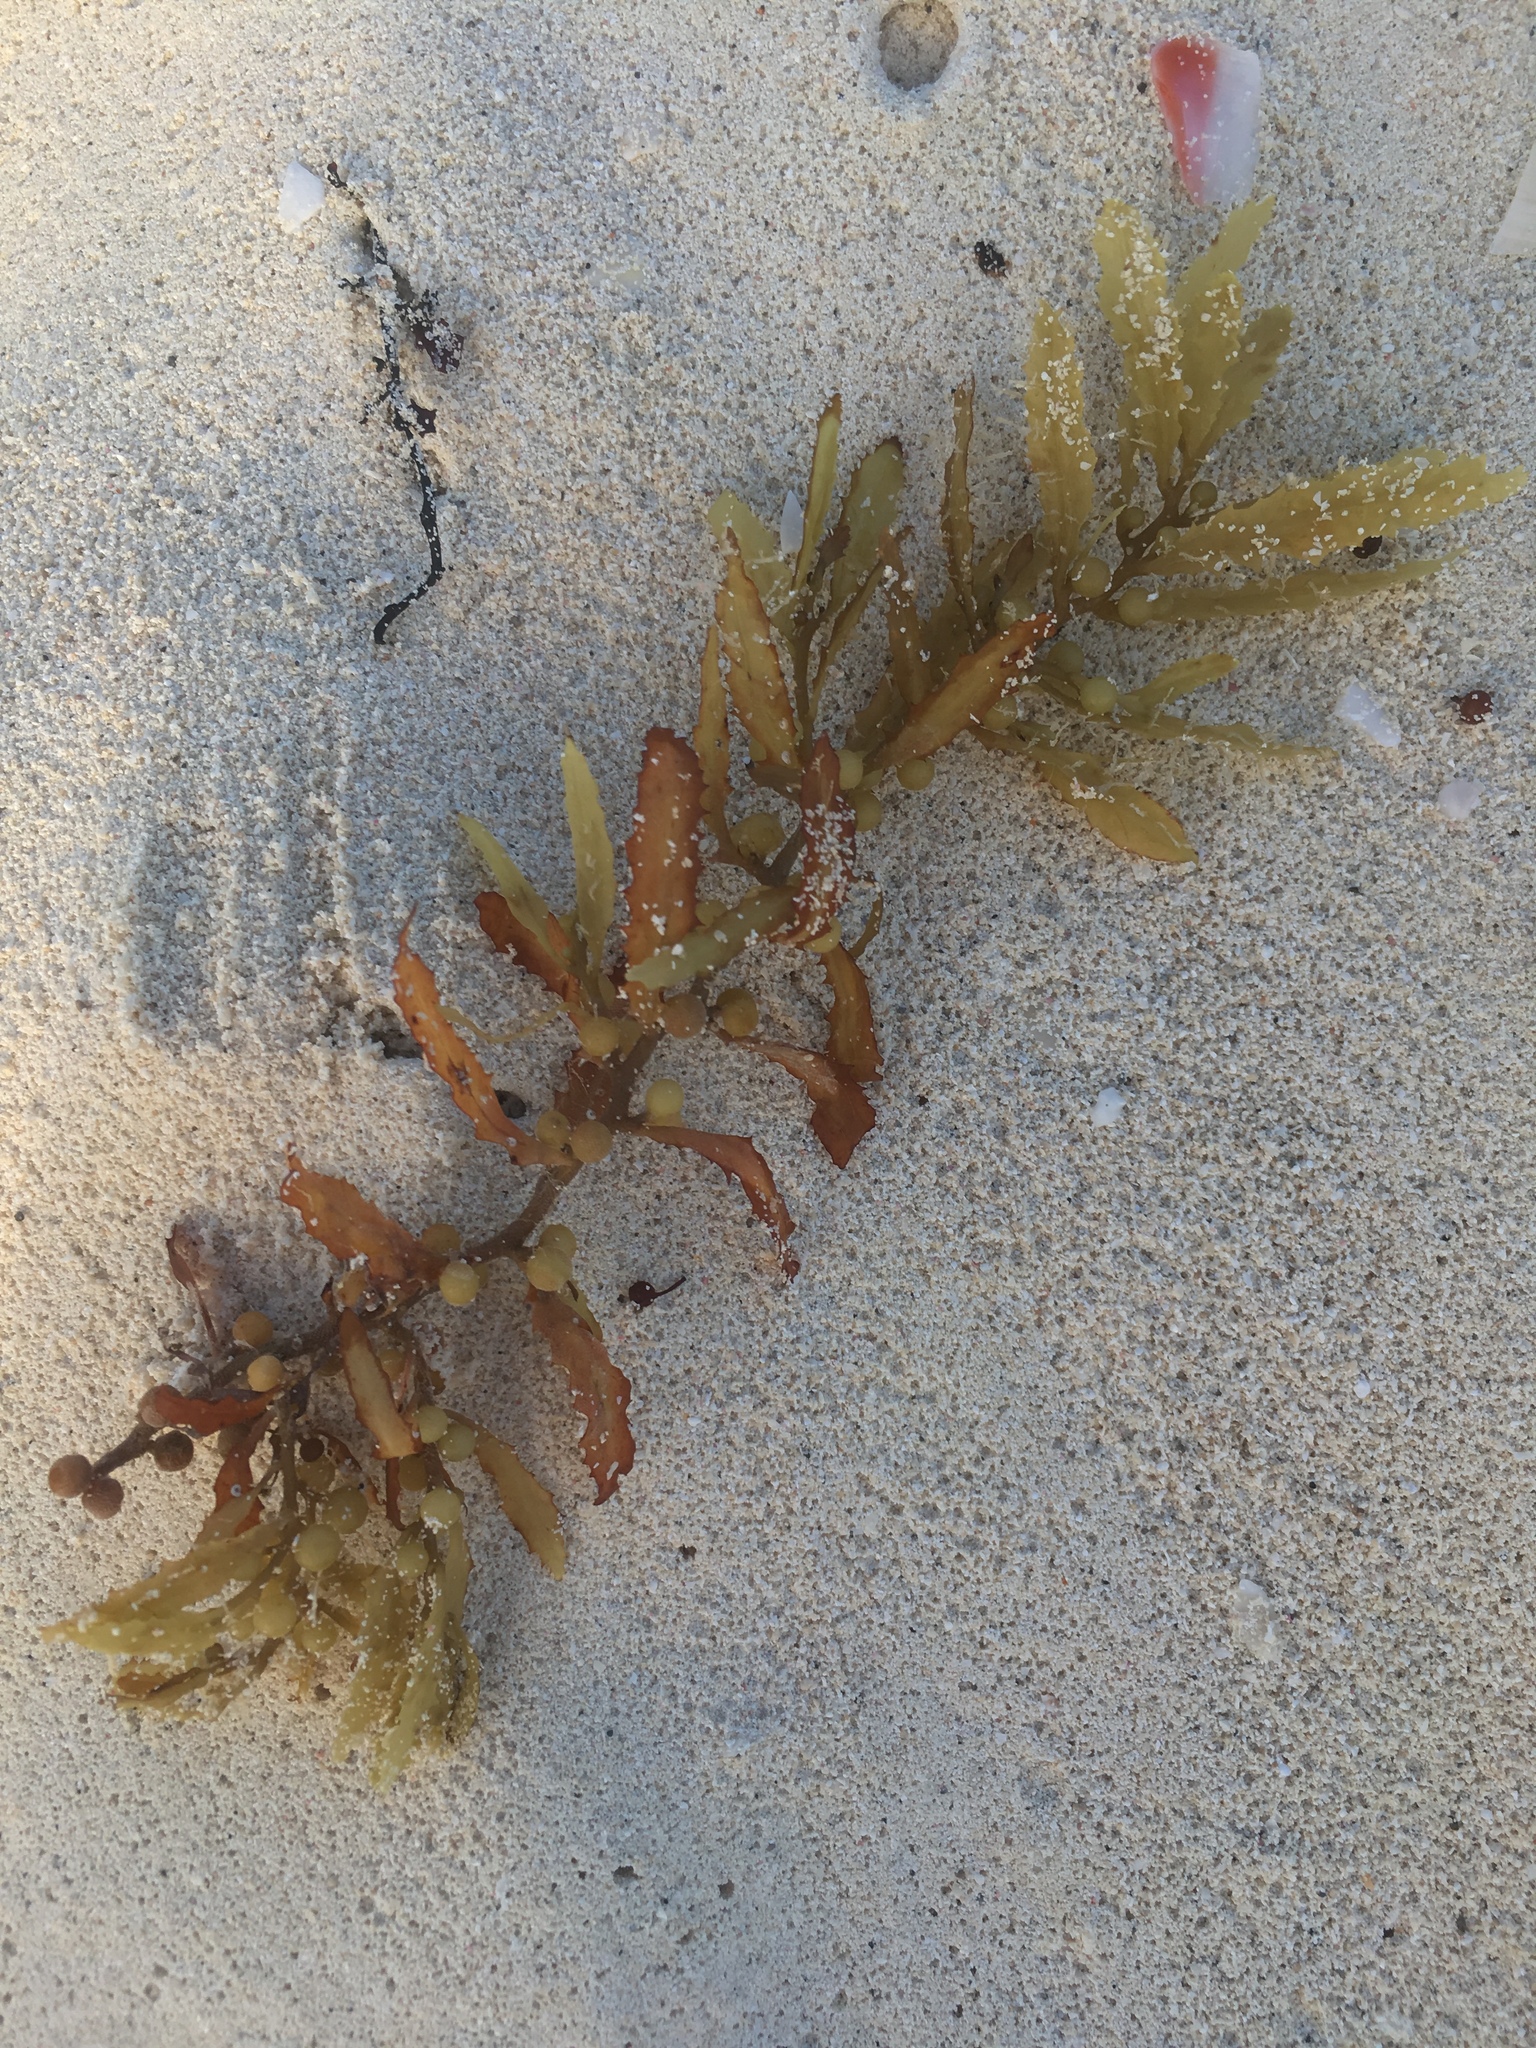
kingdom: Chromista
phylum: Ochrophyta
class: Phaeophyceae
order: Fucales
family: Sargassaceae
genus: Sargassum
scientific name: Sargassum natans
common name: Sargasso weed
